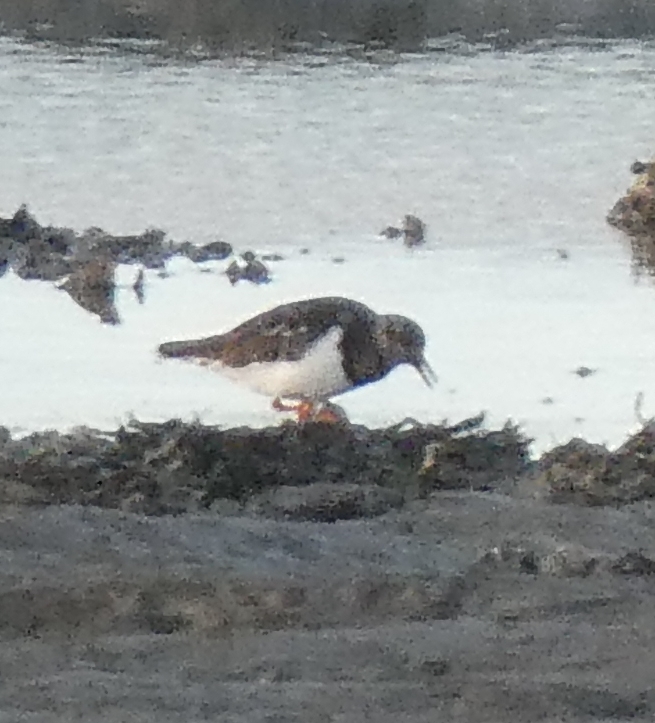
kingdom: Animalia
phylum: Chordata
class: Aves
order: Charadriiformes
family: Scolopacidae
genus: Arenaria
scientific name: Arenaria interpres
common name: Ruddy turnstone
